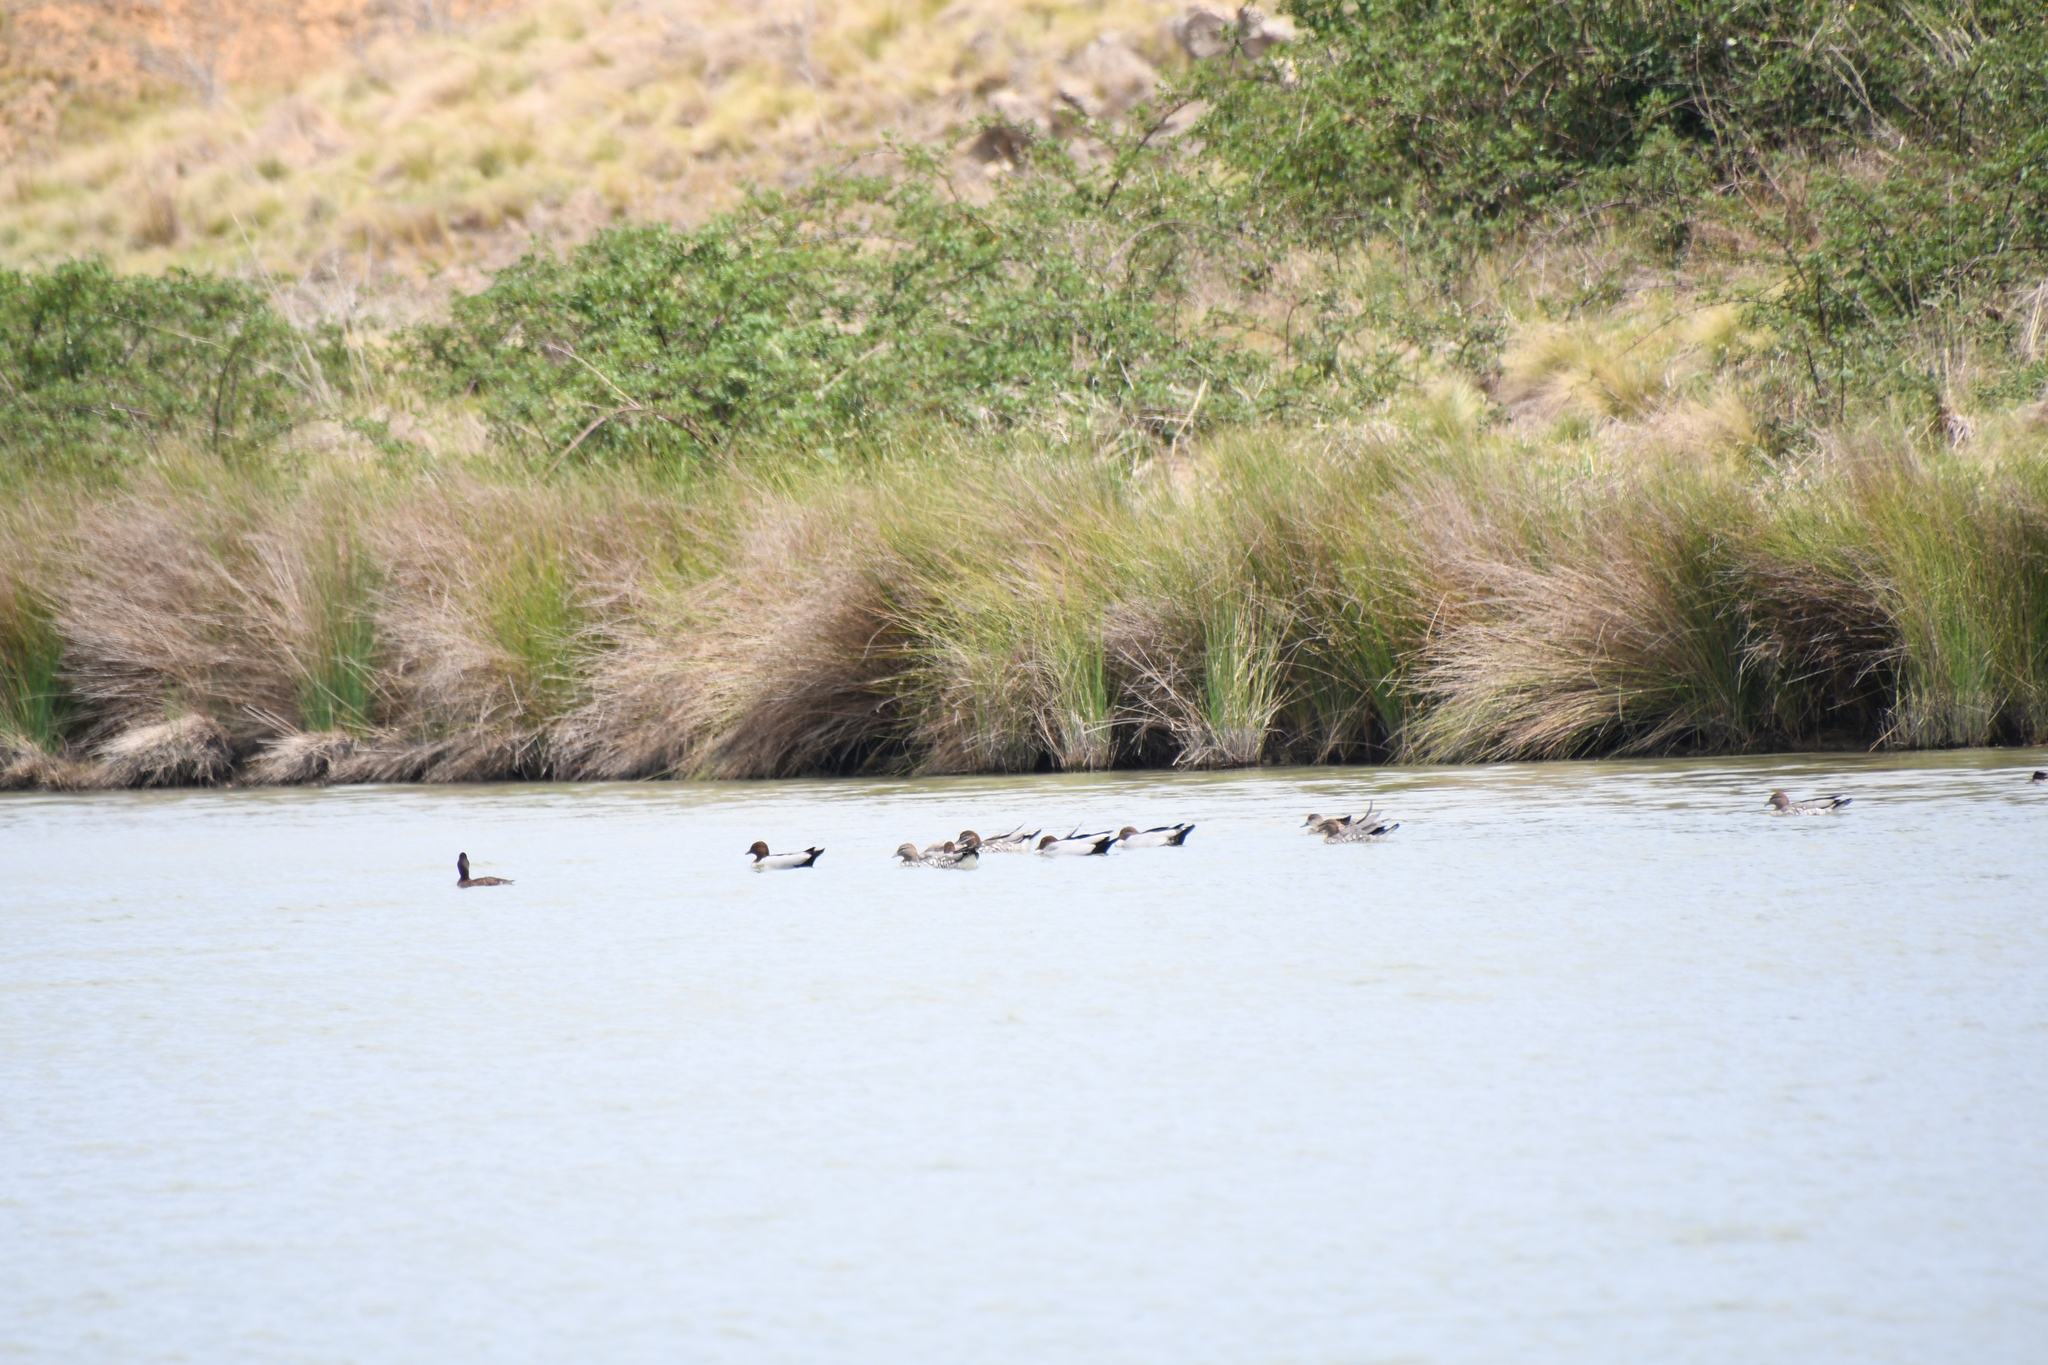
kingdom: Animalia
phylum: Chordata
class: Aves
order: Anseriformes
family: Anatidae
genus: Chenonetta
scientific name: Chenonetta jubata
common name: Maned duck
